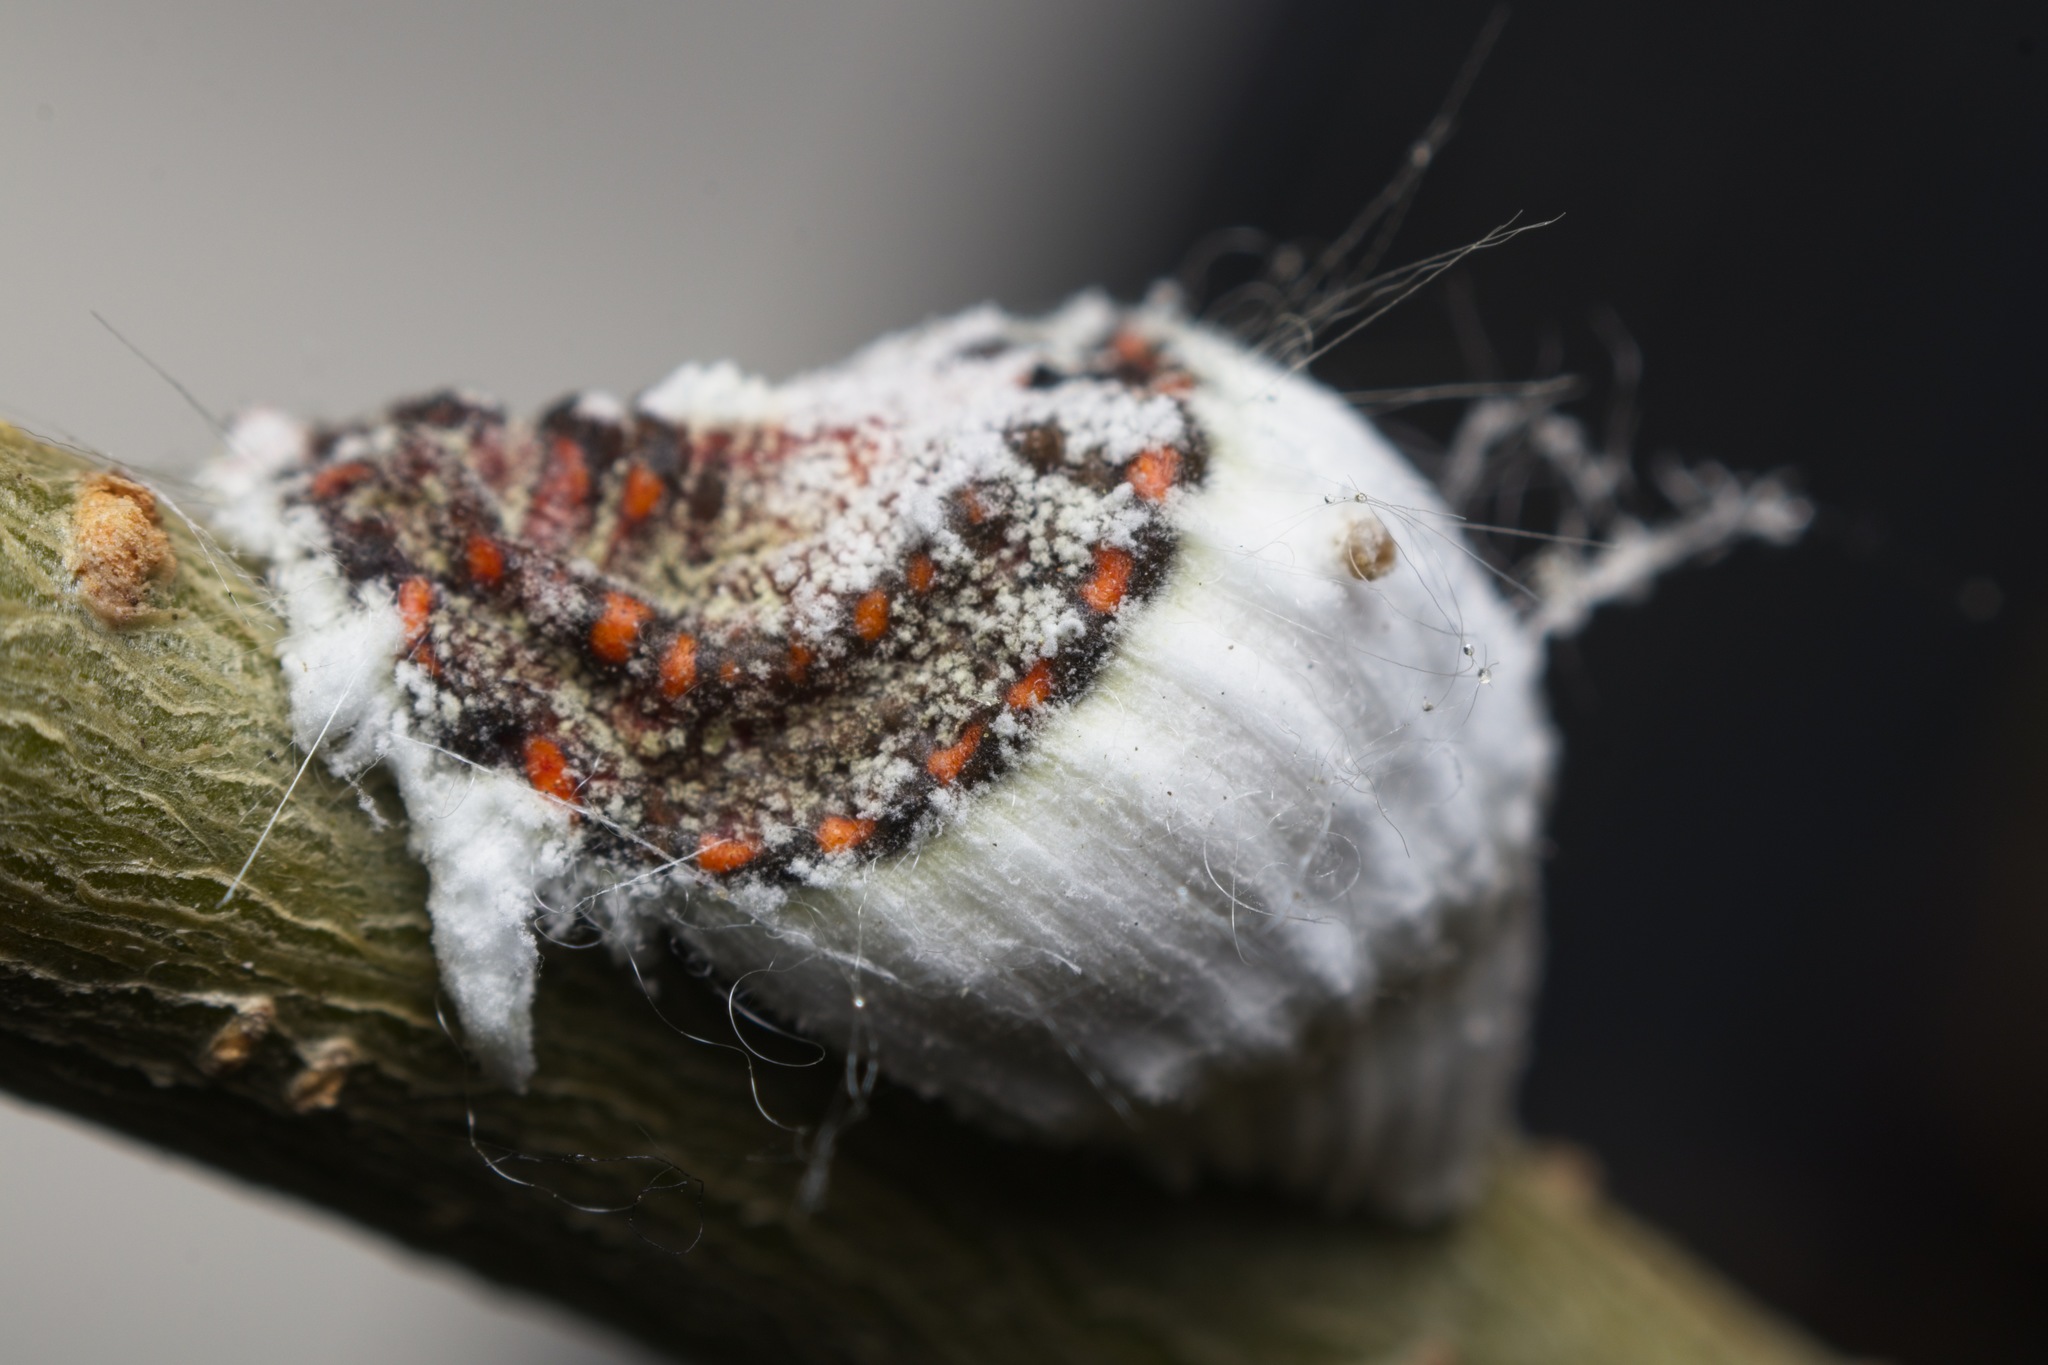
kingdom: Animalia
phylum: Arthropoda
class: Insecta
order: Hemiptera
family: Margarodidae
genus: Icerya
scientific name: Icerya purchasi
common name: Cottony cushion scale
